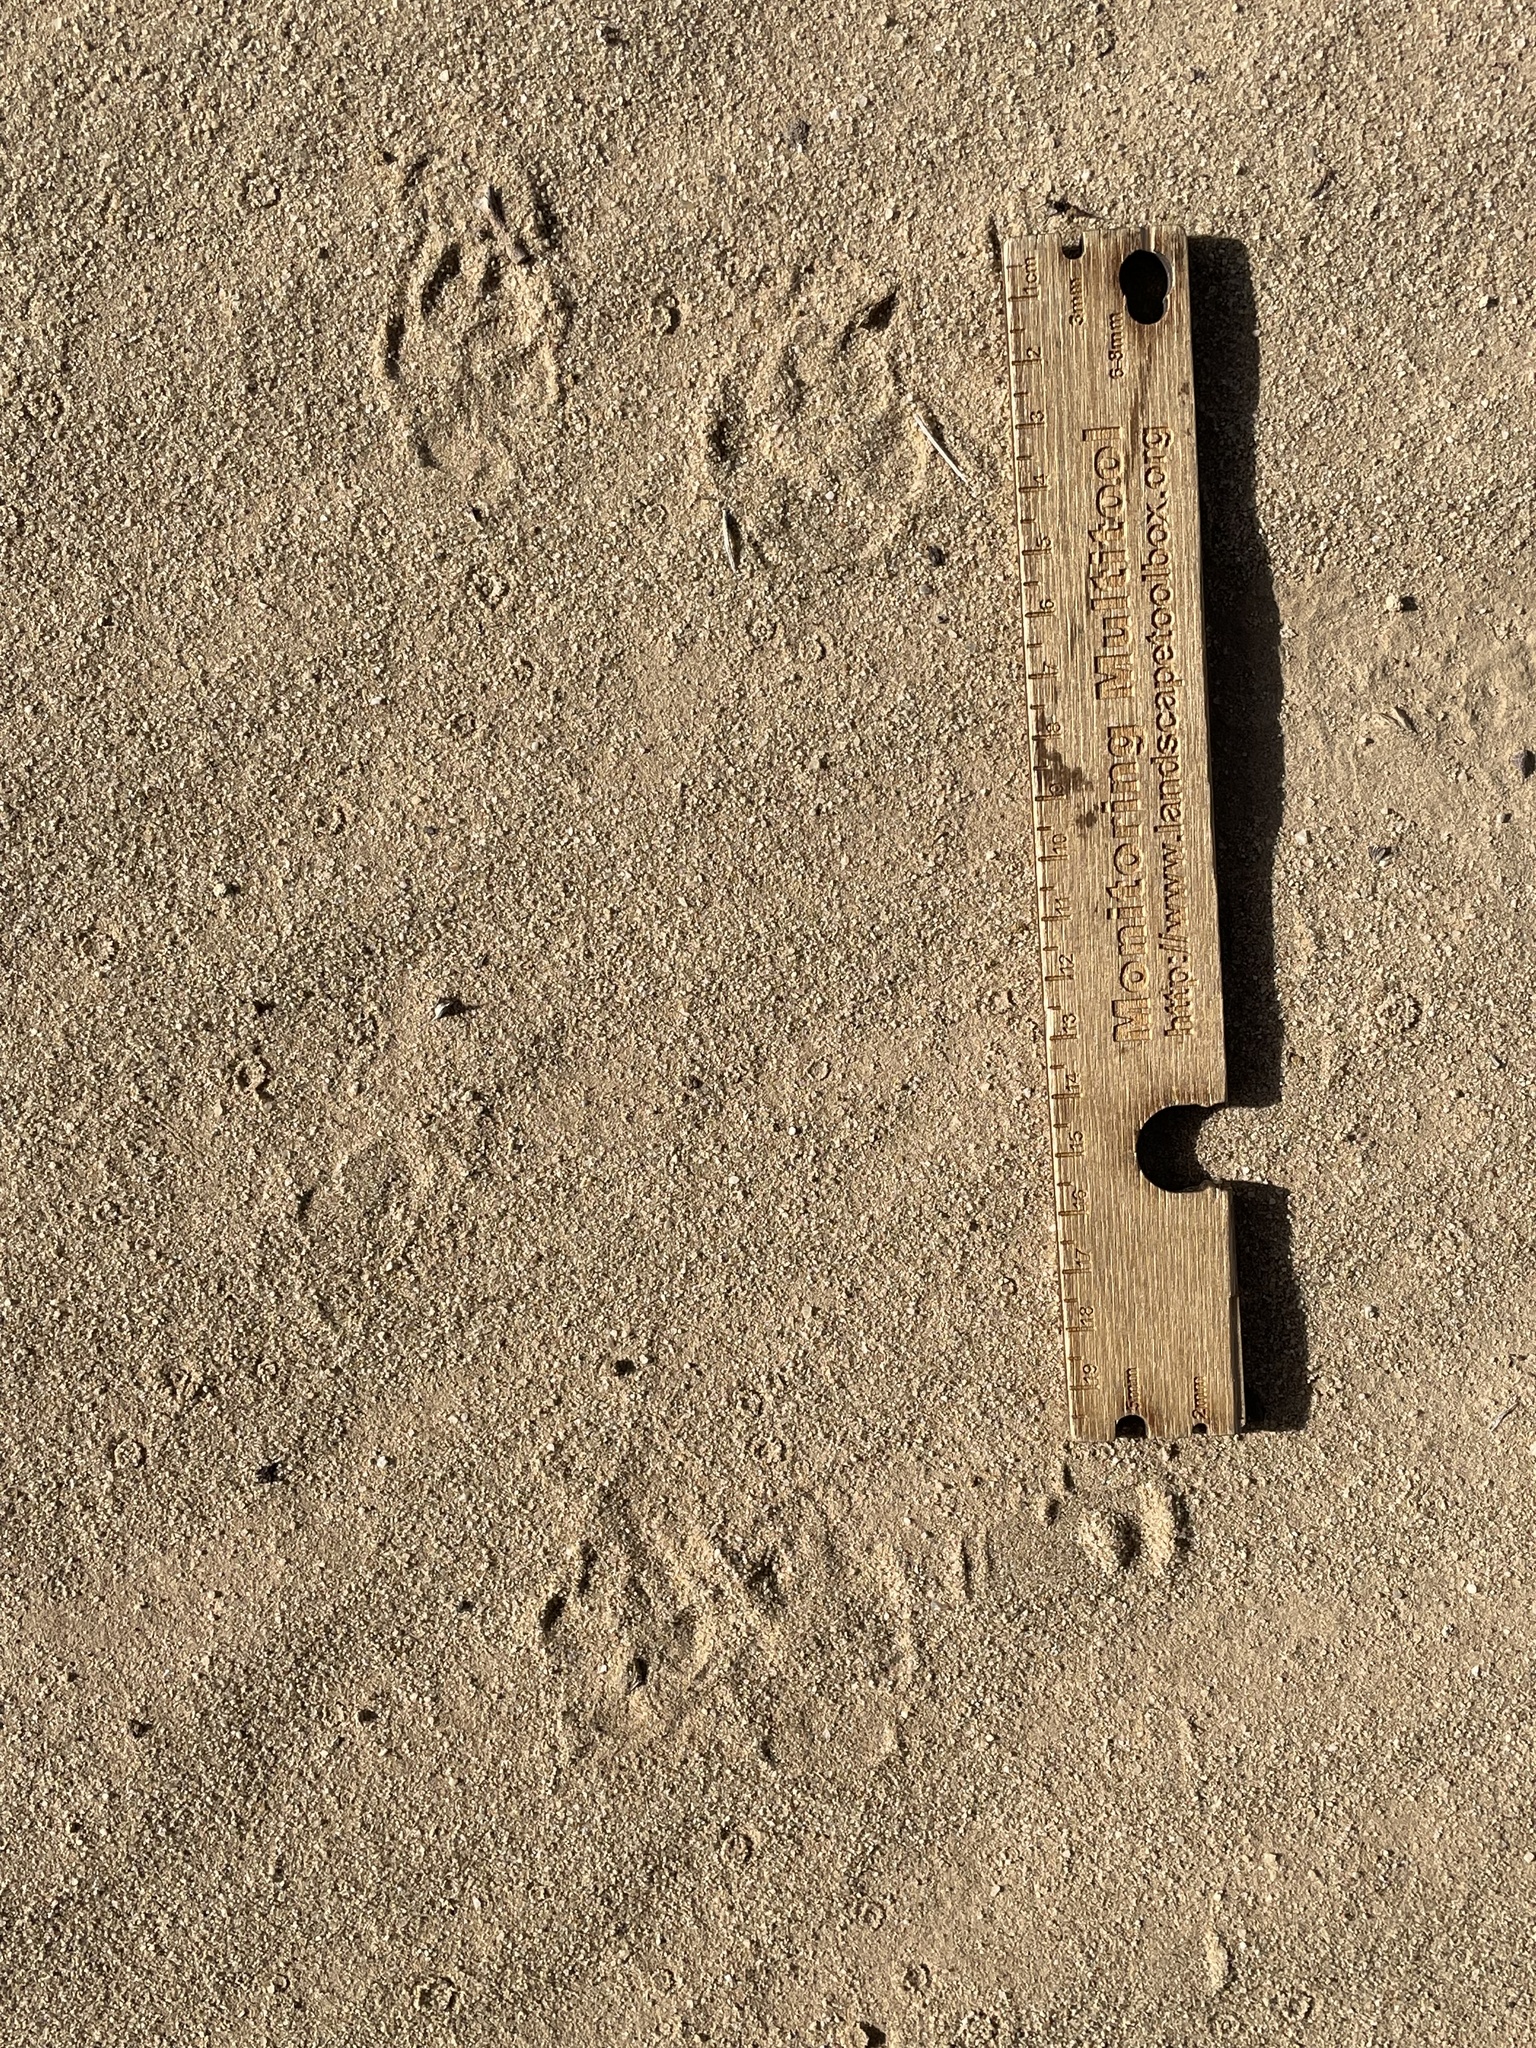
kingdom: Animalia
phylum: Chordata
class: Mammalia
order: Carnivora
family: Canidae
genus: Vulpes
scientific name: Vulpes macrotis
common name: Kit fox
